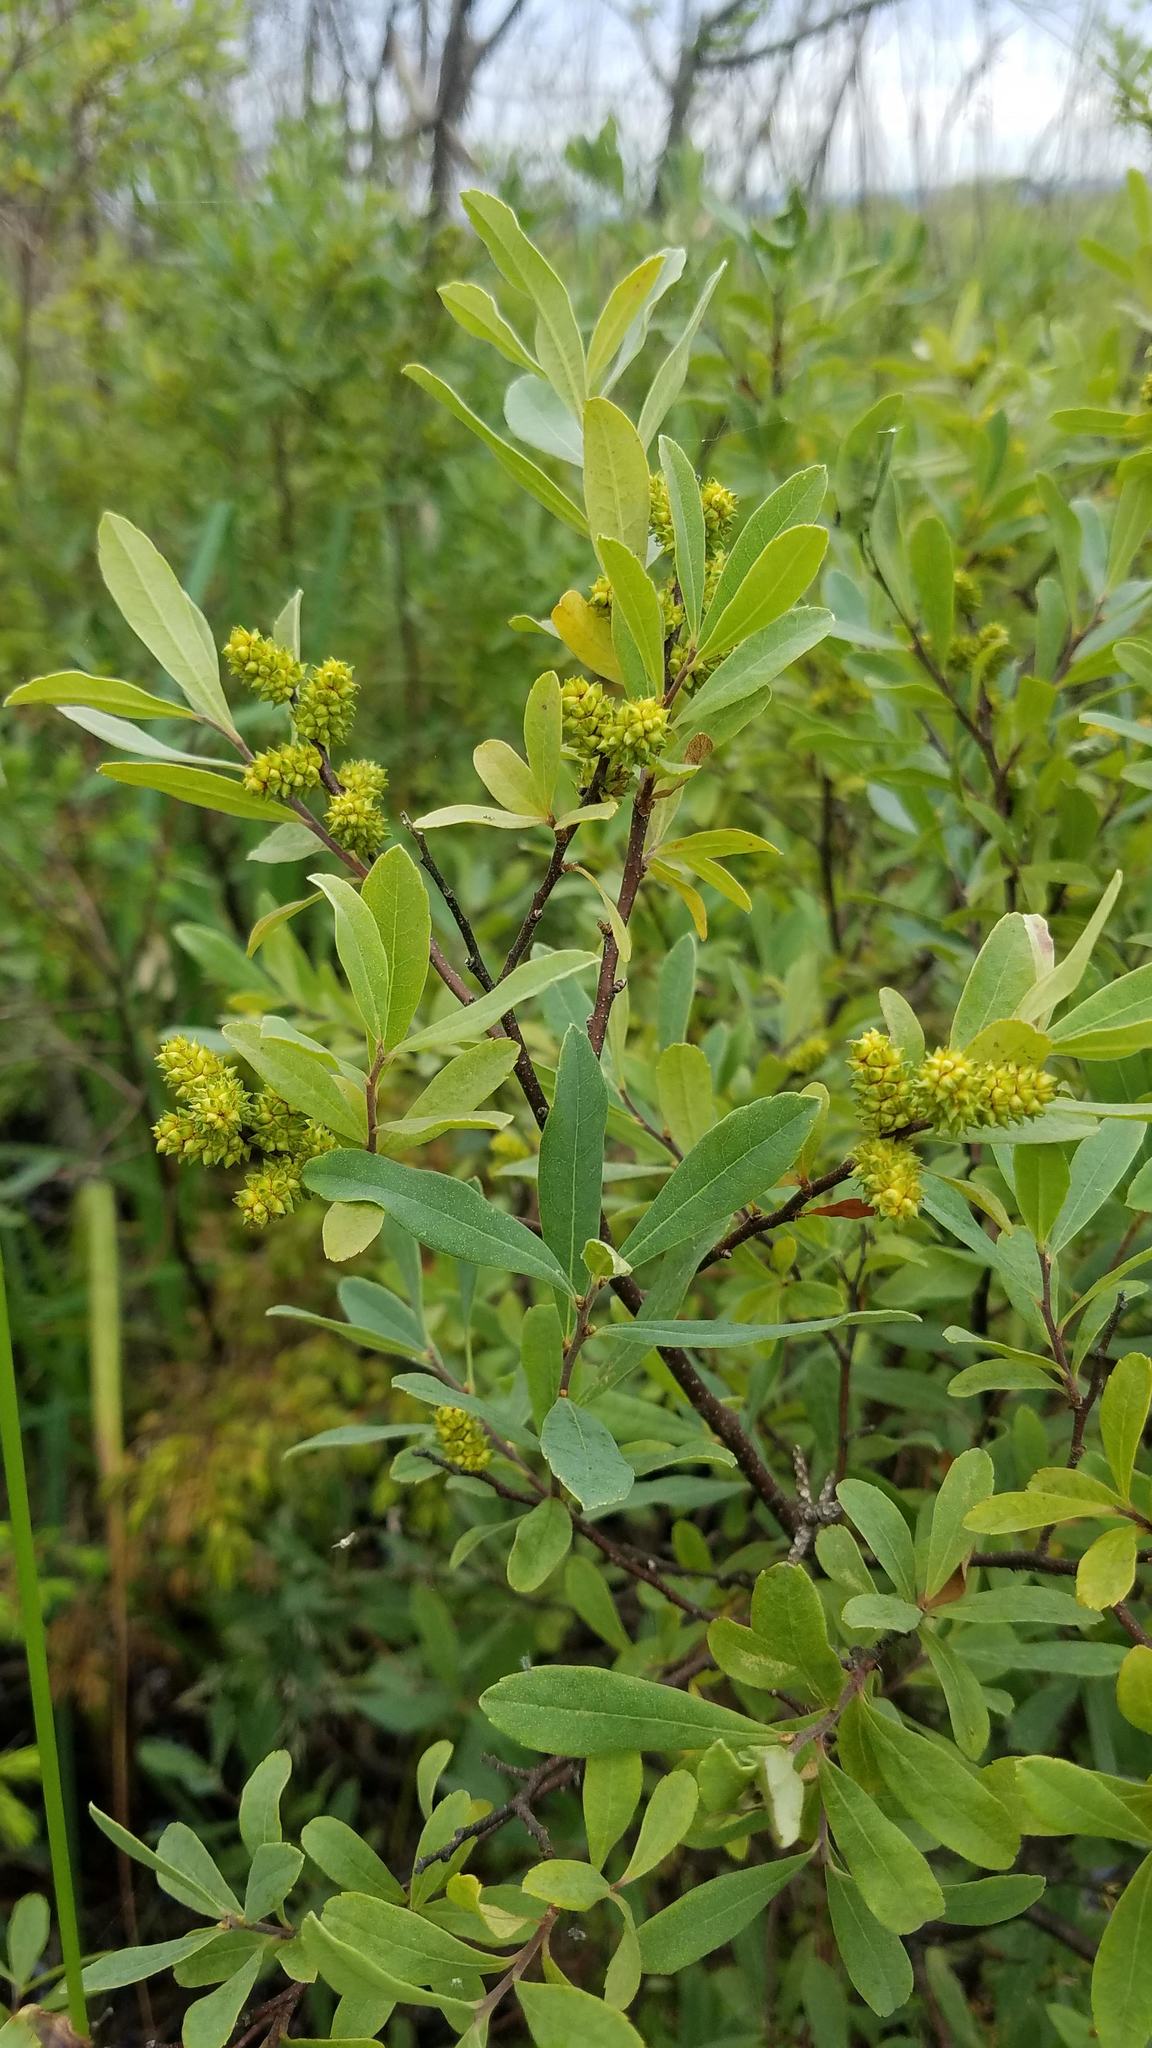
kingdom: Plantae
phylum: Tracheophyta
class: Magnoliopsida
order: Fagales
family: Myricaceae
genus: Myrica
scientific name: Myrica gale
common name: Sweet gale
